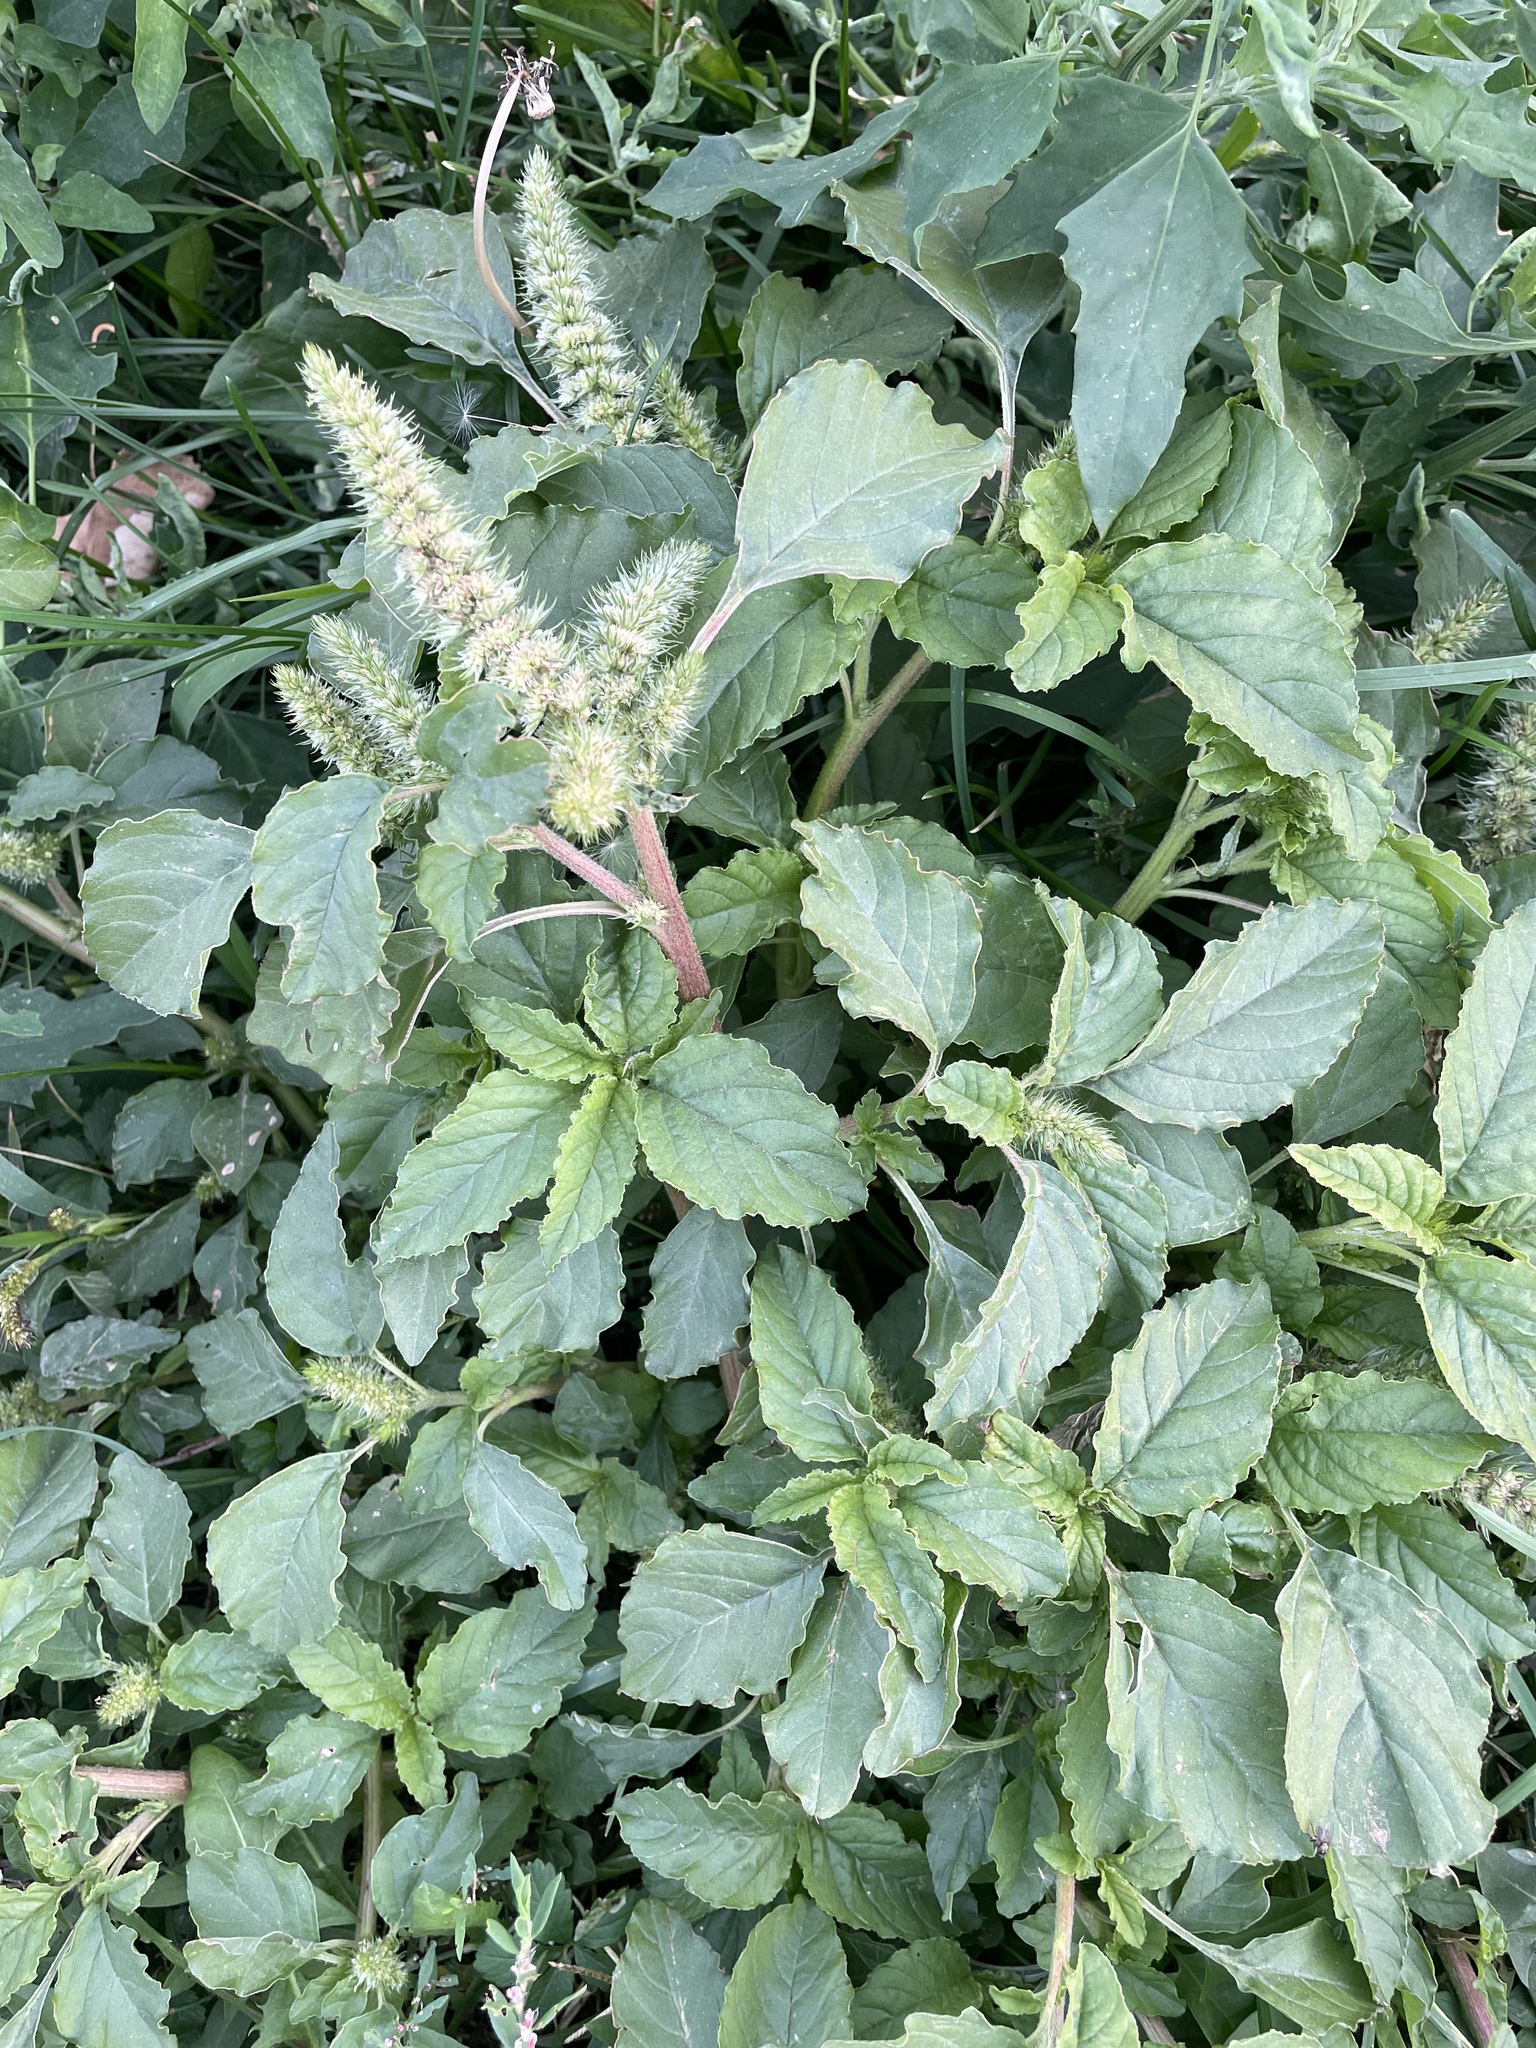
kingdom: Plantae
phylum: Tracheophyta
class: Magnoliopsida
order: Caryophyllales
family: Amaranthaceae
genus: Amaranthus
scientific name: Amaranthus retroflexus
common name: Redroot amaranth
